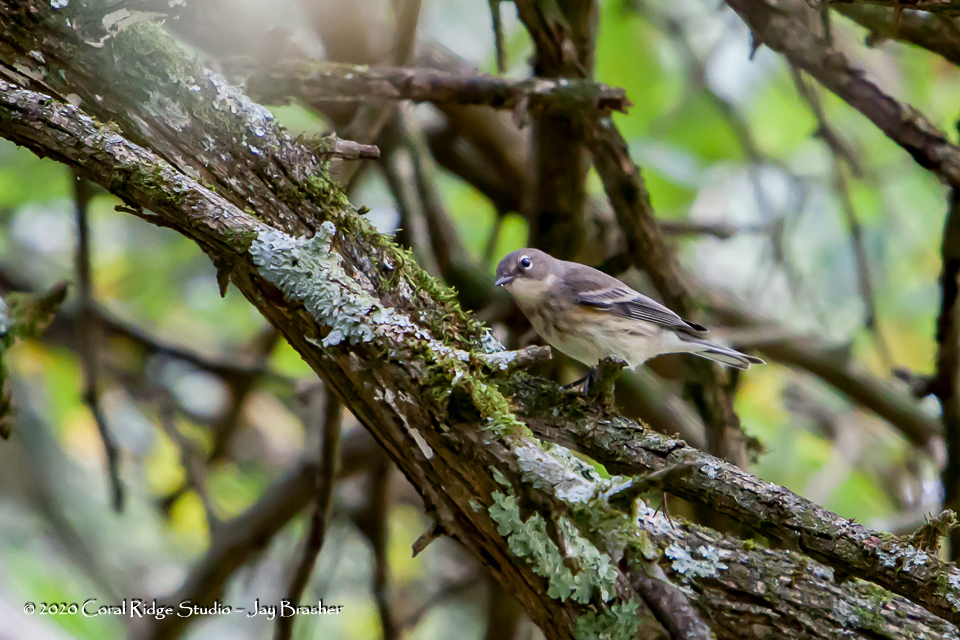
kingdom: Animalia
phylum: Chordata
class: Aves
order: Passeriformes
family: Parulidae
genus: Setophaga
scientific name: Setophaga coronata
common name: Myrtle warbler
